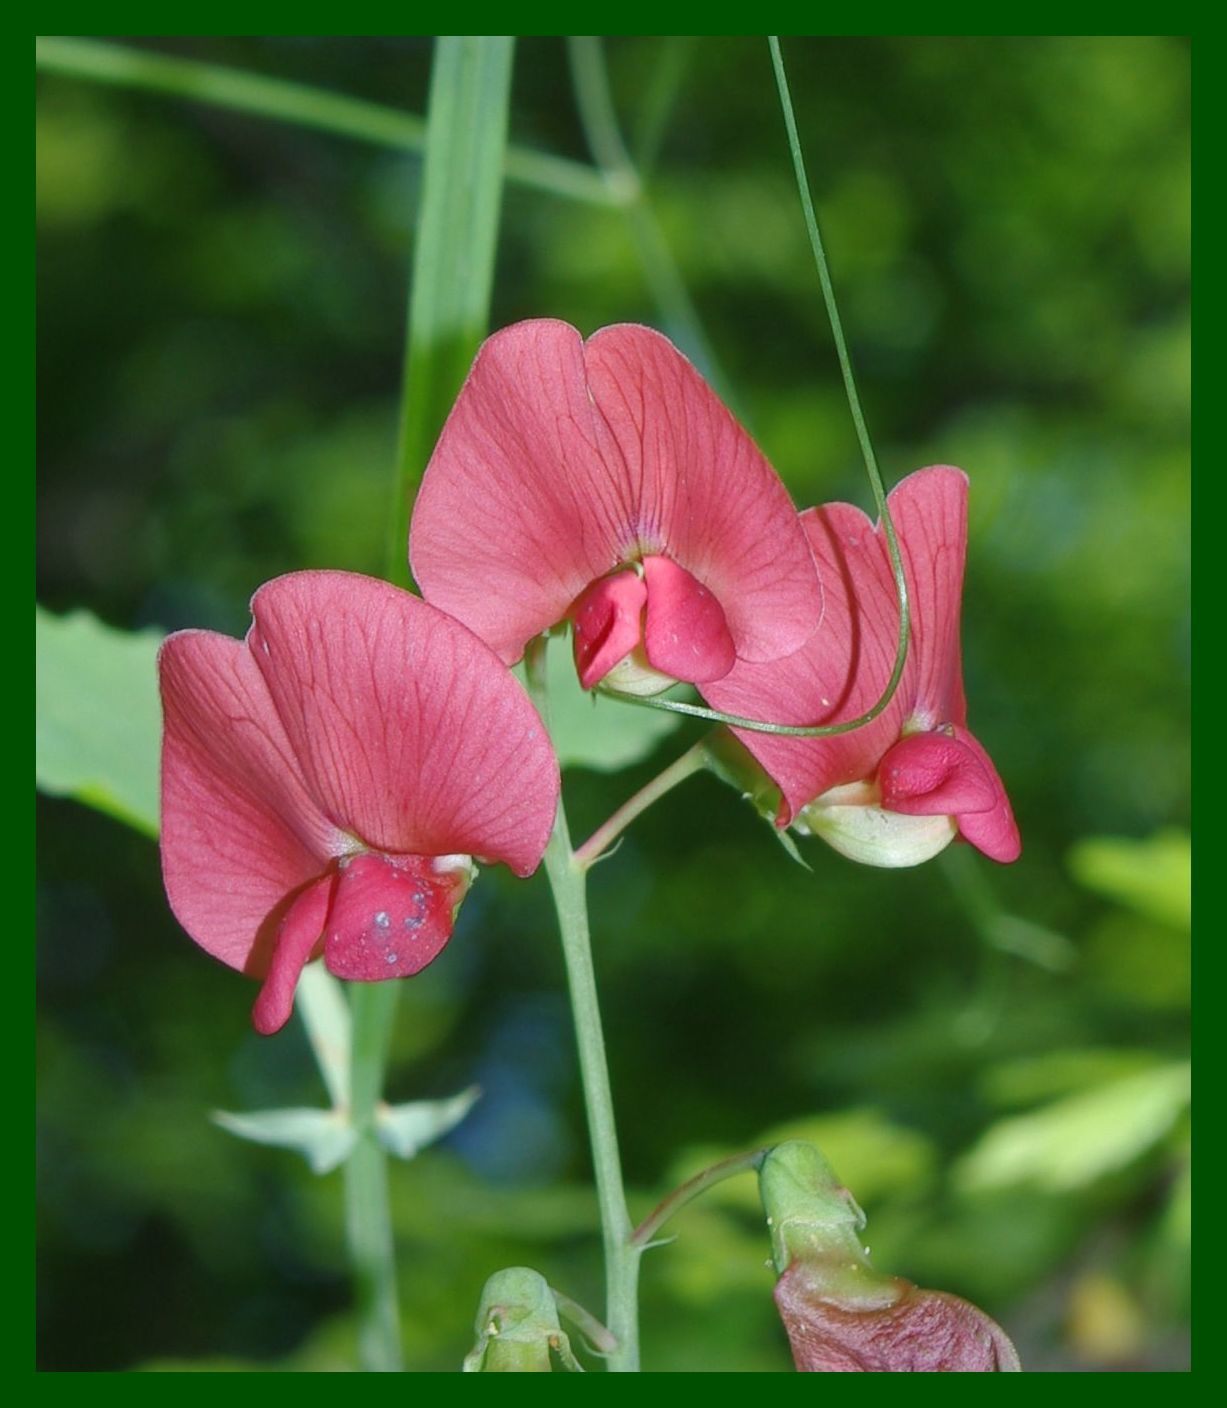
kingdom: Plantae
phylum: Tracheophyta
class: Magnoliopsida
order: Fabales
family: Fabaceae
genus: Lathyrus
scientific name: Lathyrus rotundifolius
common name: Round-leaf vetchling
